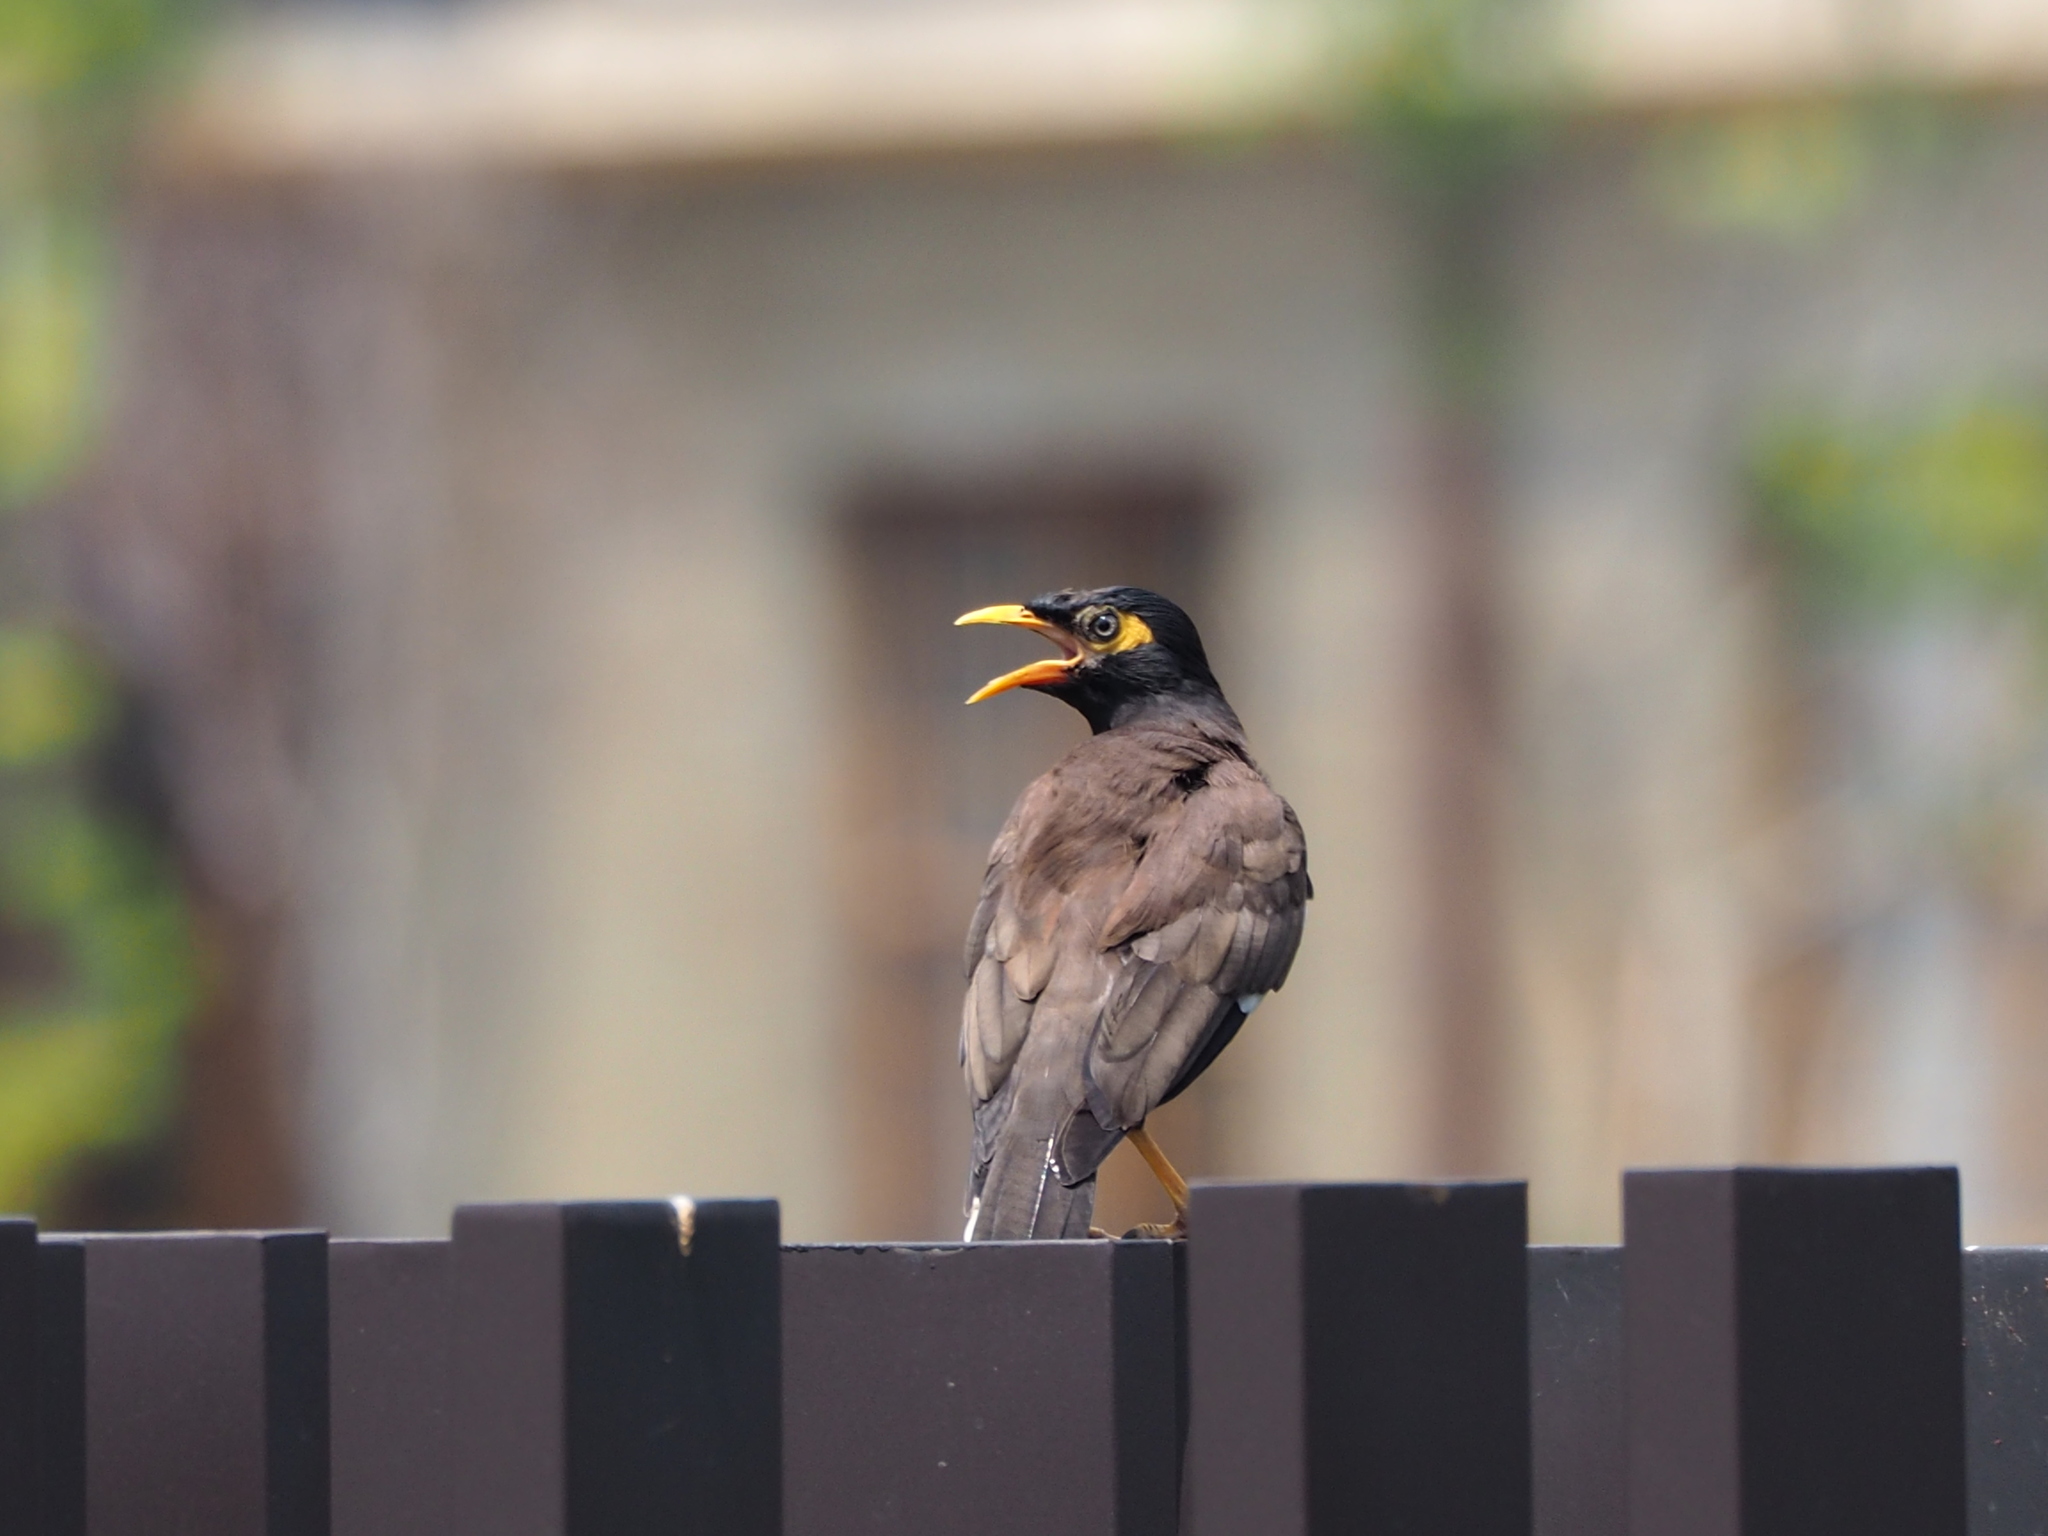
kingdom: Animalia
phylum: Chordata
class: Aves
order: Passeriformes
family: Sturnidae
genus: Acridotheres
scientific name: Acridotheres tristis
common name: Common myna
